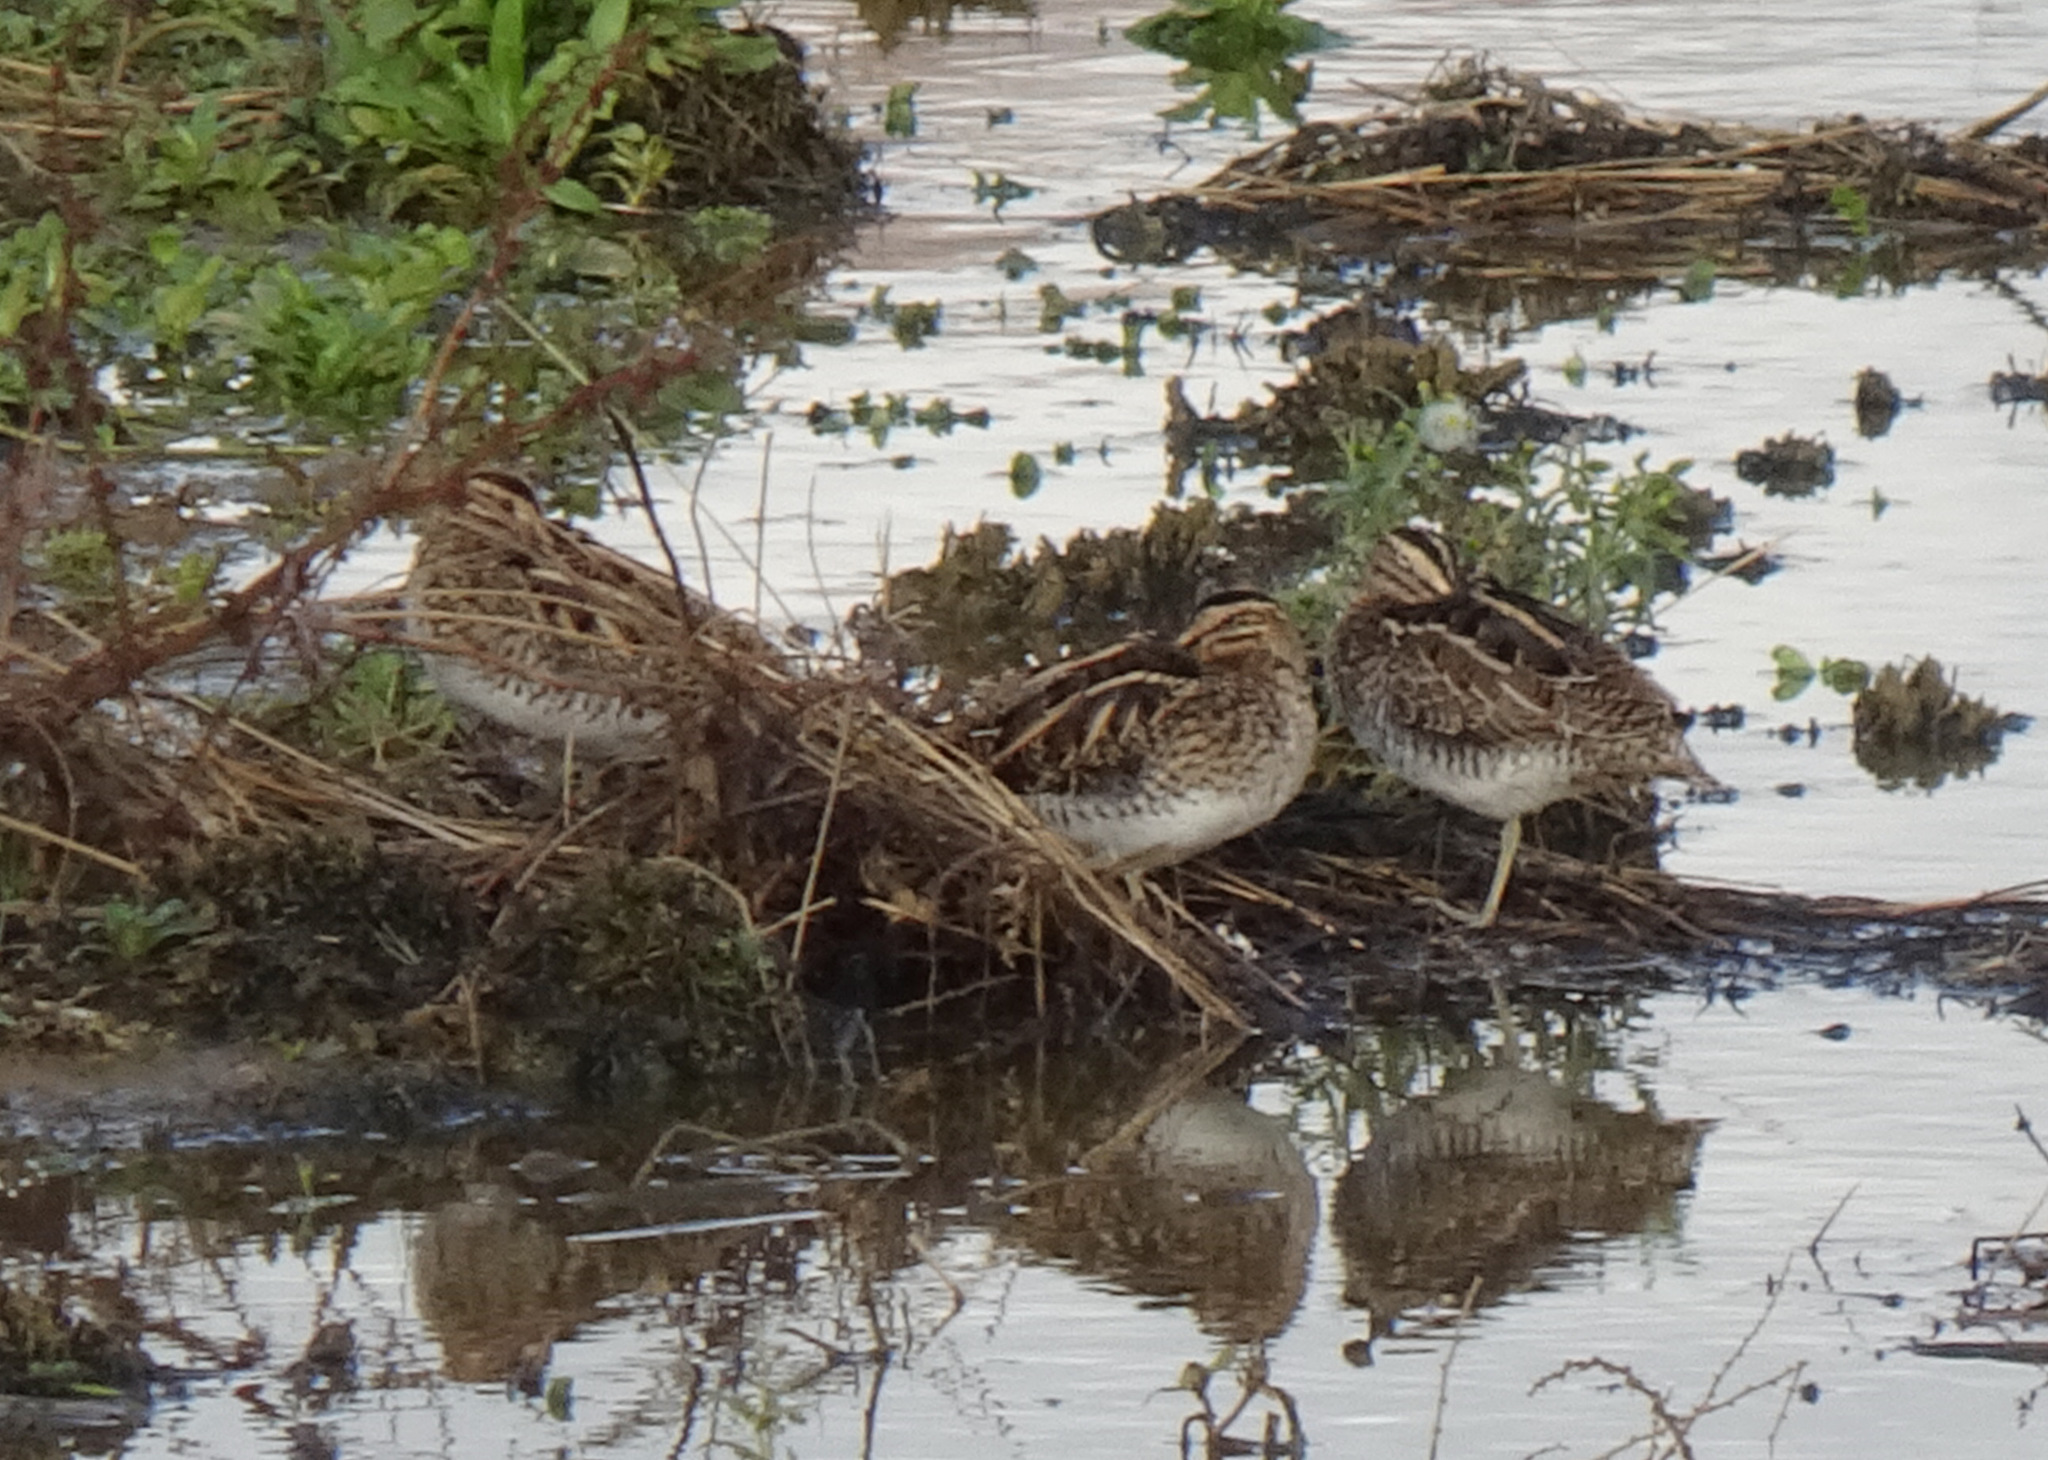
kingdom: Animalia
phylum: Chordata
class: Aves
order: Charadriiformes
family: Scolopacidae
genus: Gallinago
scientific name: Gallinago gallinago
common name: Common snipe
